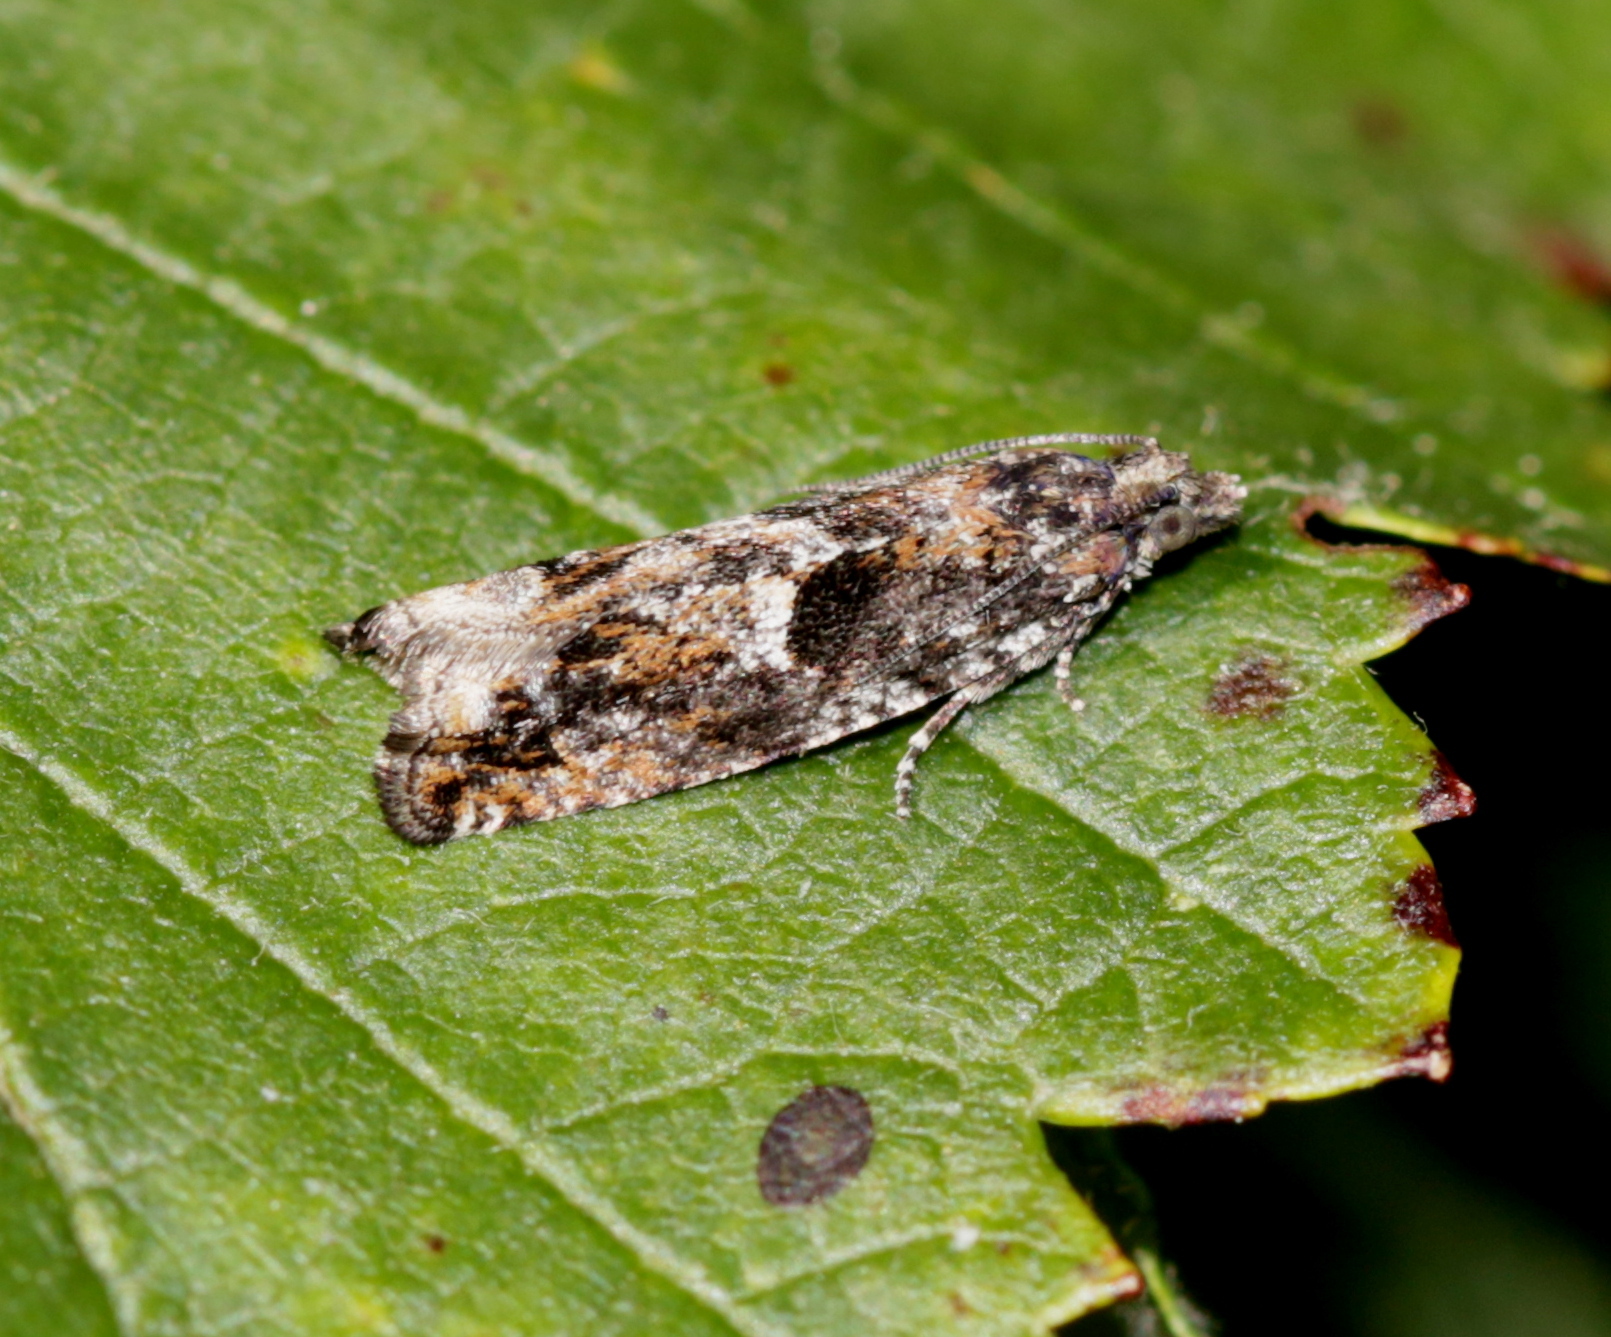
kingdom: Animalia
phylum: Arthropoda
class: Insecta
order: Lepidoptera
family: Tortricidae
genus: Epinotia
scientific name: Epinotia nisella
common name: Grey poplar bell
